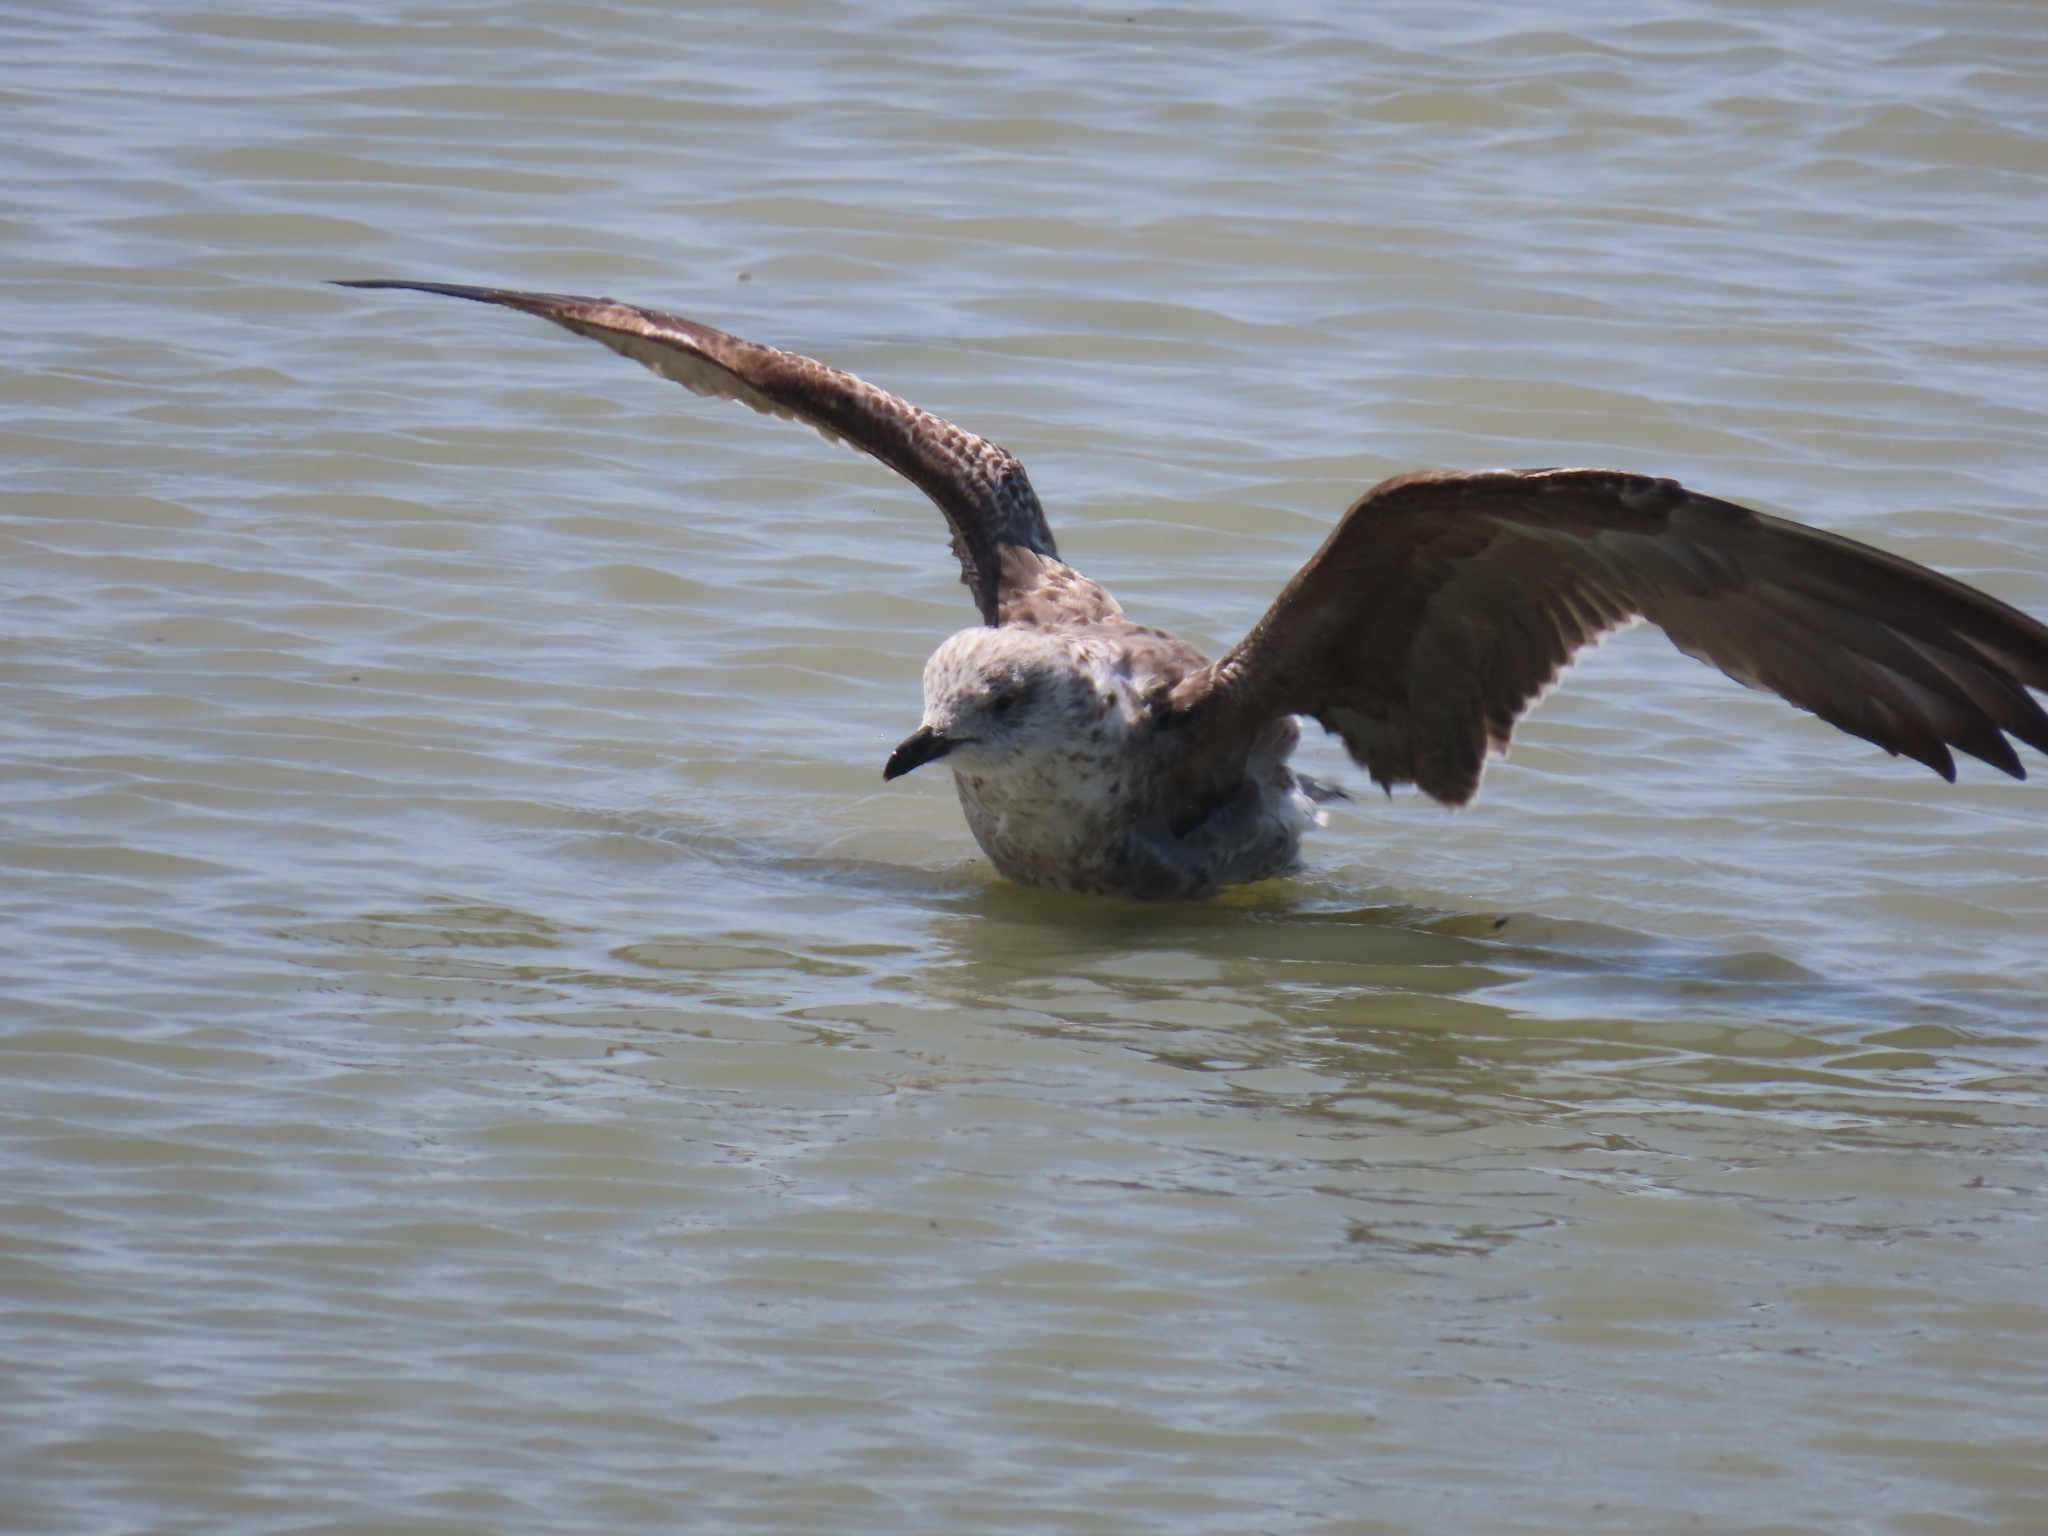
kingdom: Animalia
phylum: Chordata
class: Aves
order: Charadriiformes
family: Laridae
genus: Larus
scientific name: Larus fuscus
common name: Lesser black-backed gull
